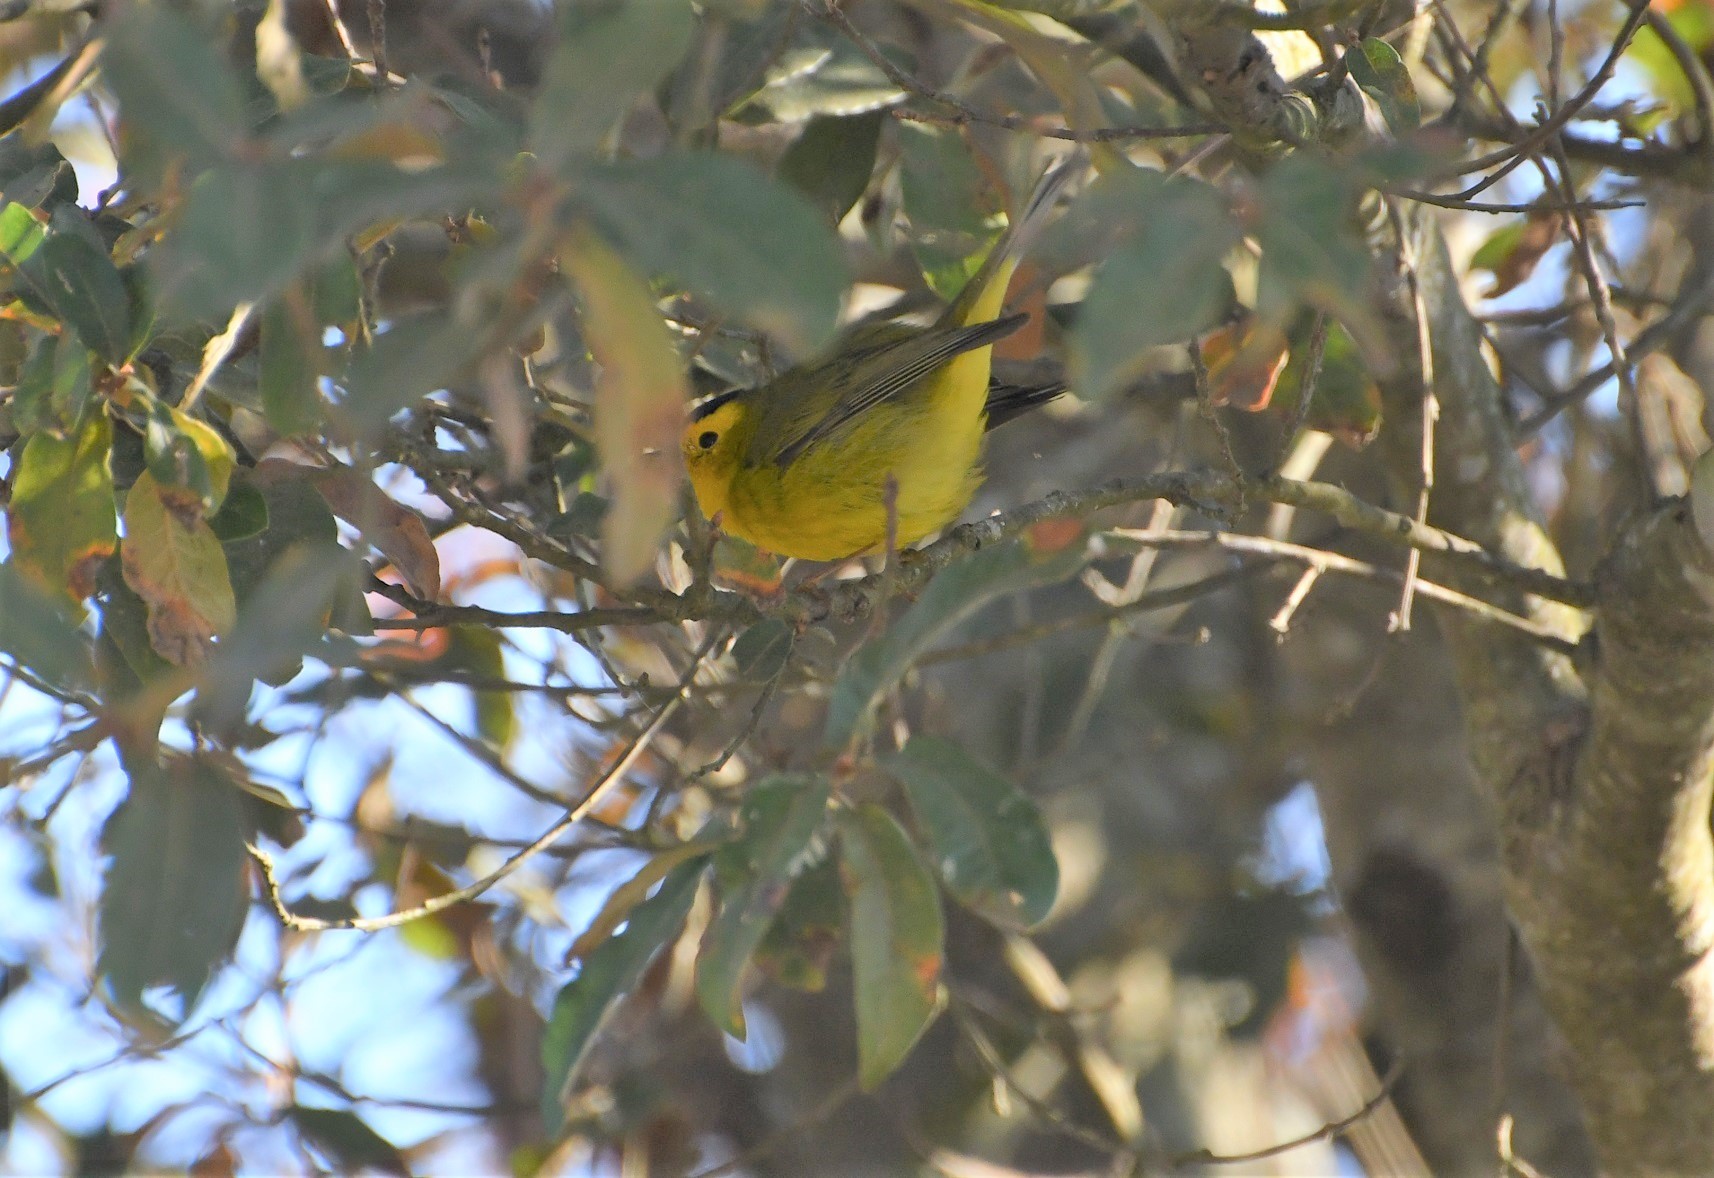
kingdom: Animalia
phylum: Chordata
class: Aves
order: Passeriformes
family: Parulidae
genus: Cardellina
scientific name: Cardellina pusilla
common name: Wilson's warbler
